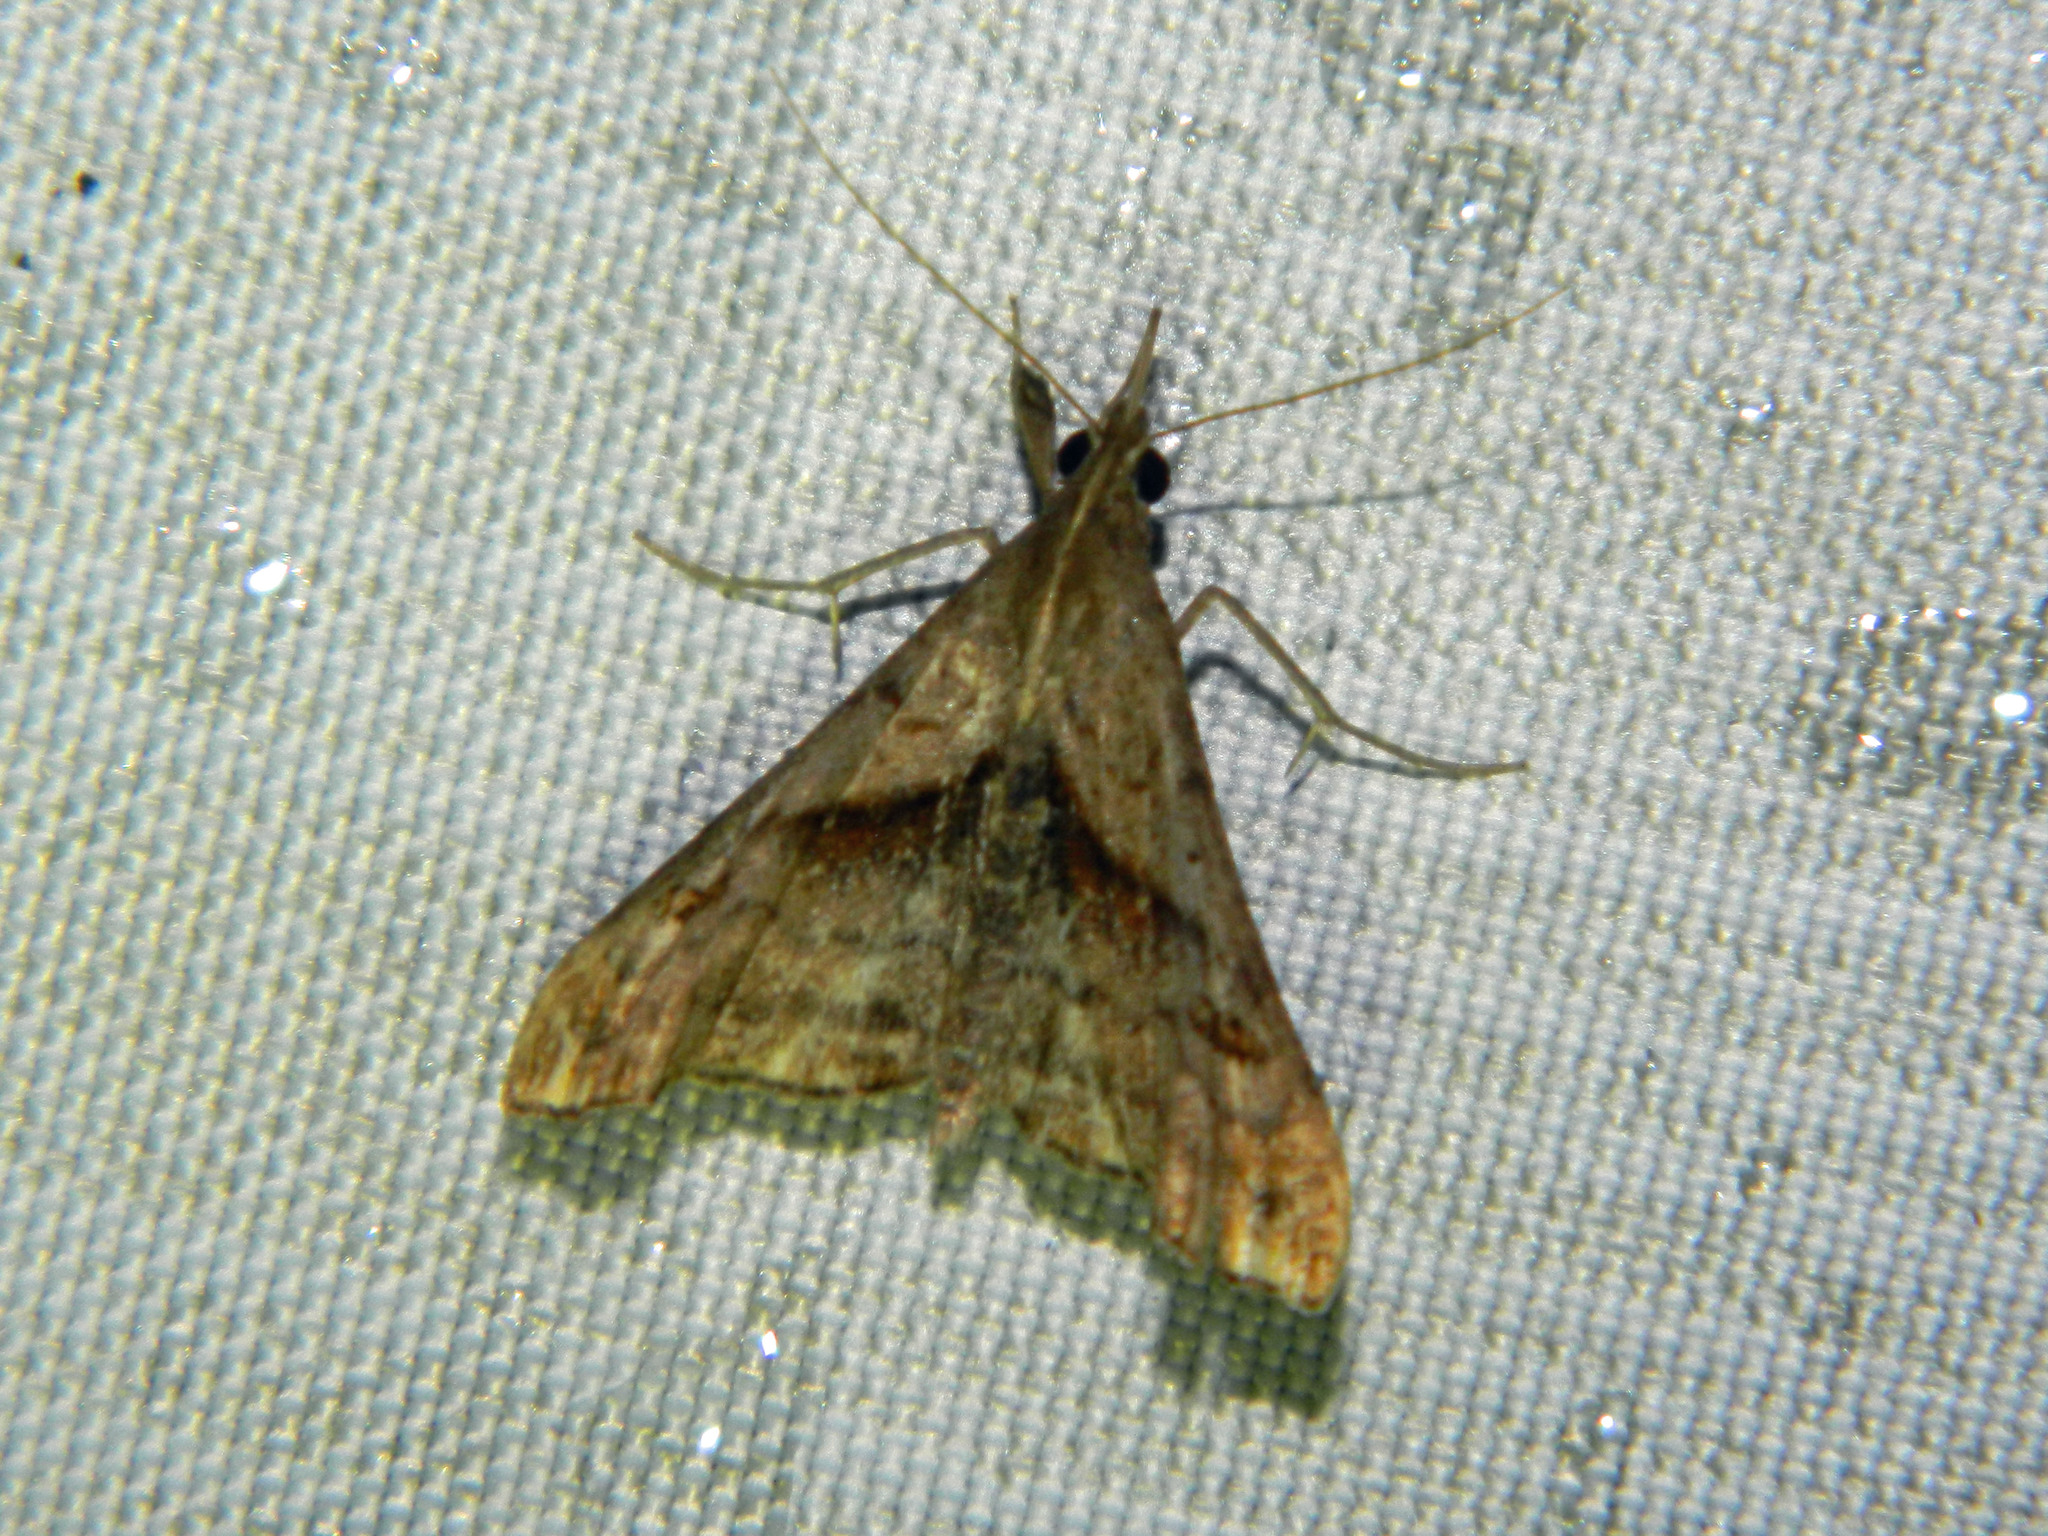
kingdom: Animalia
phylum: Arthropoda
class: Insecta
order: Lepidoptera
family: Erebidae
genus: Palthis
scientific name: Palthis angulalis
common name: Dark-spotted palthis moth
